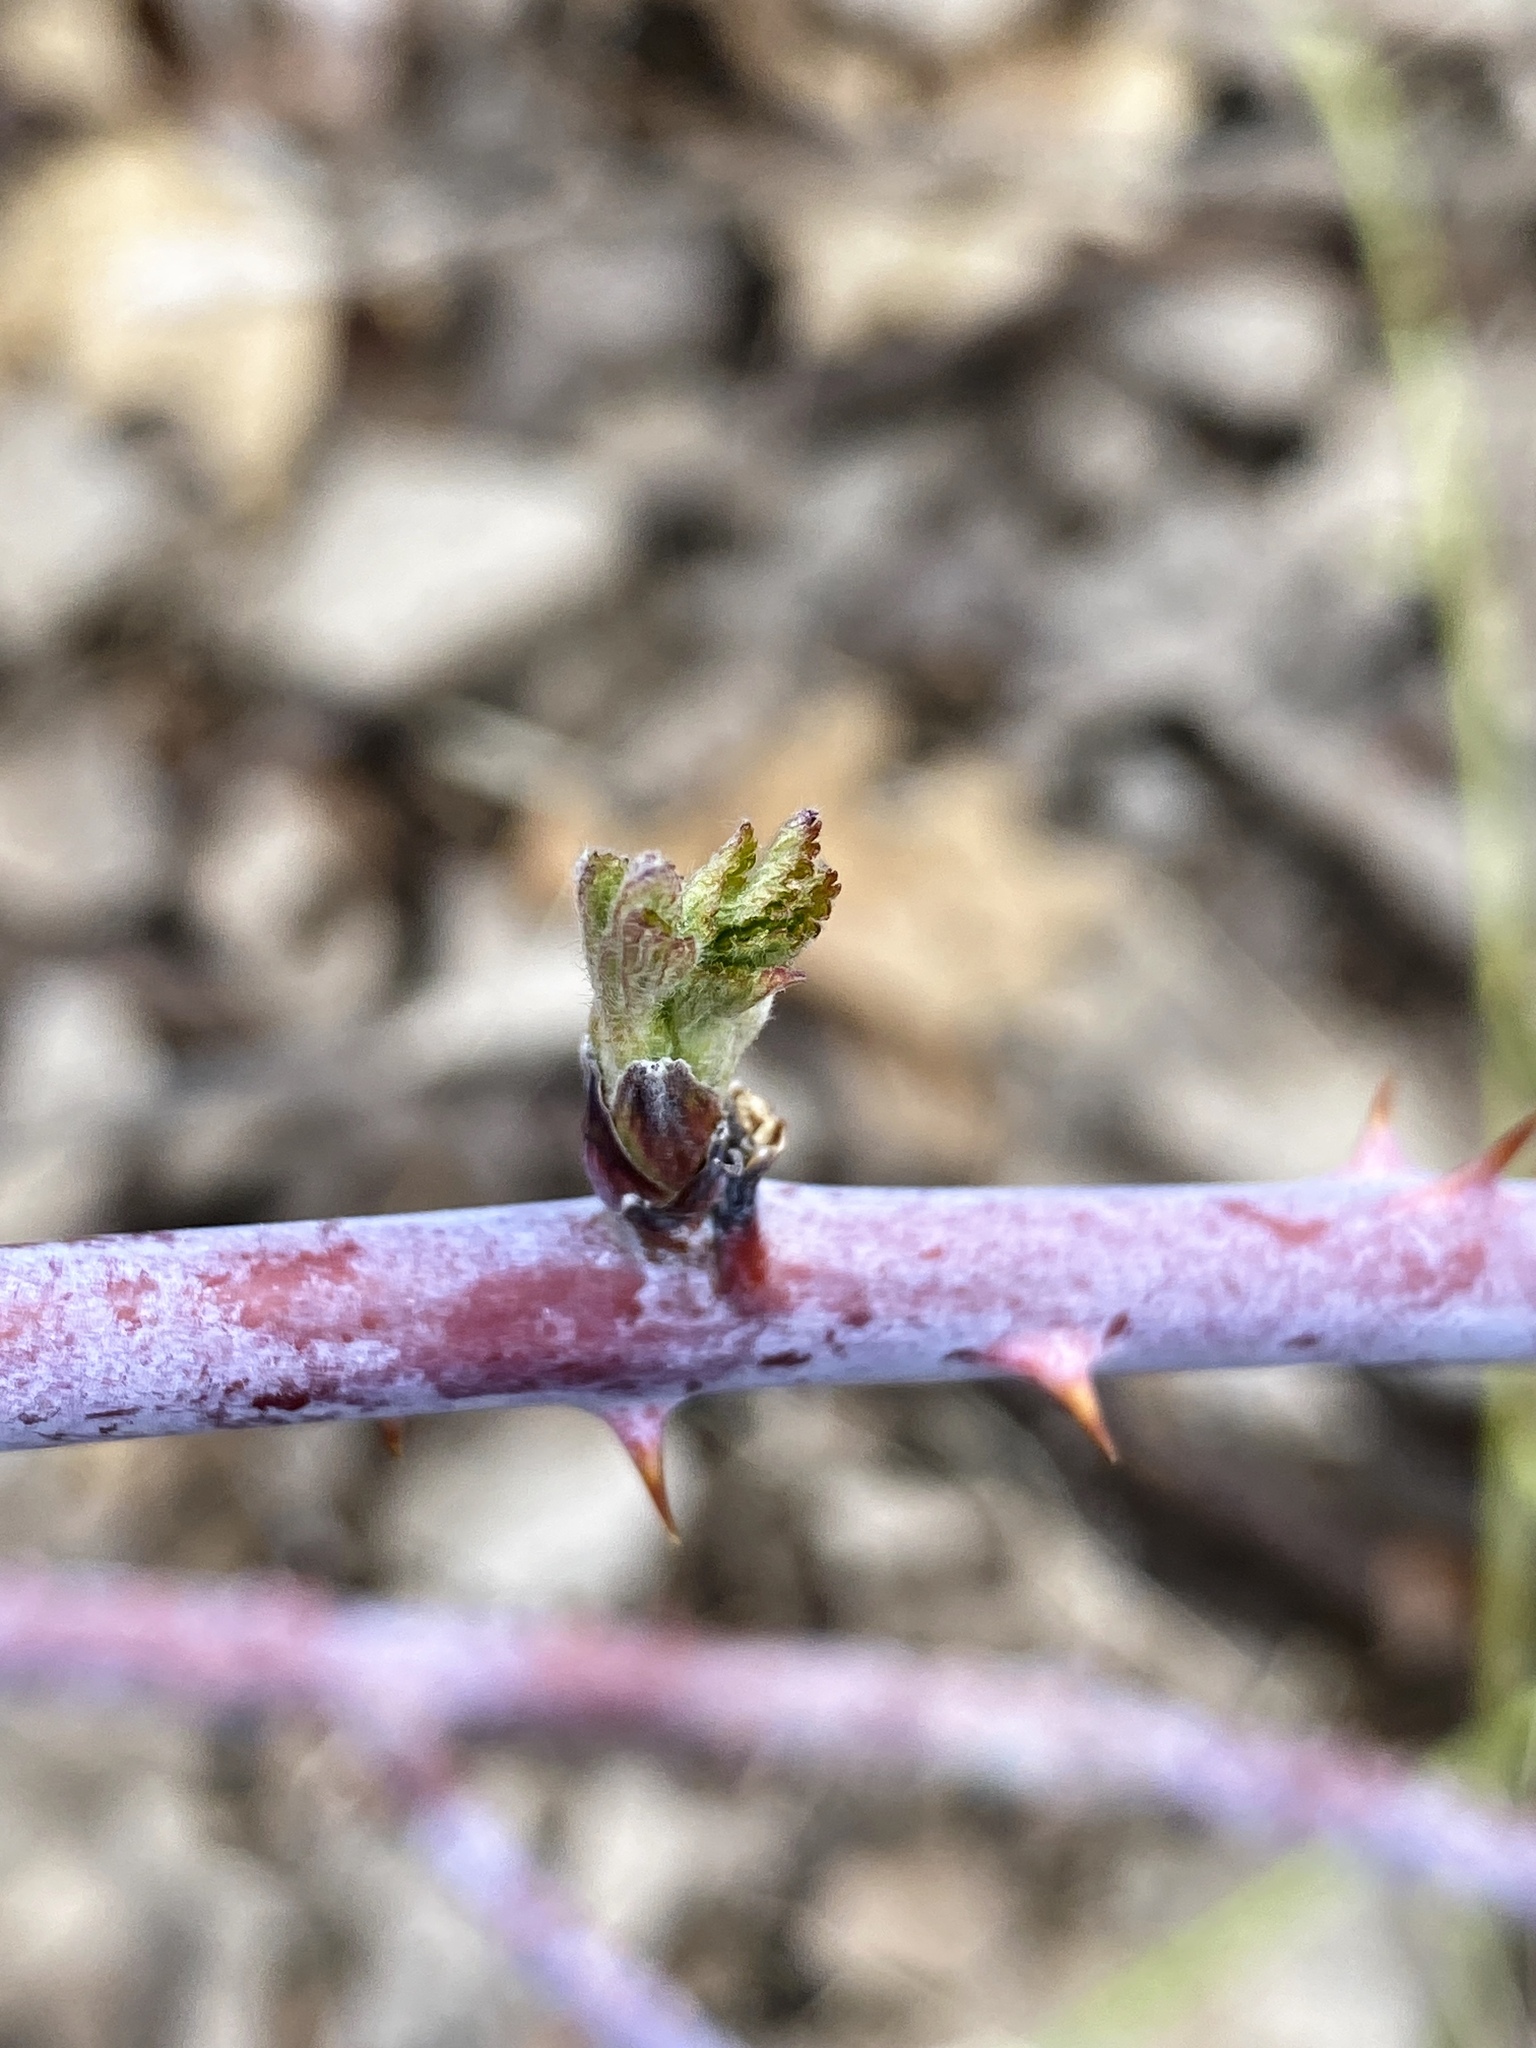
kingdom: Plantae
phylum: Tracheophyta
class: Magnoliopsida
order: Rosales
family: Rosaceae
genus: Rubus
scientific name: Rubus occidentalis
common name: Black raspberry
